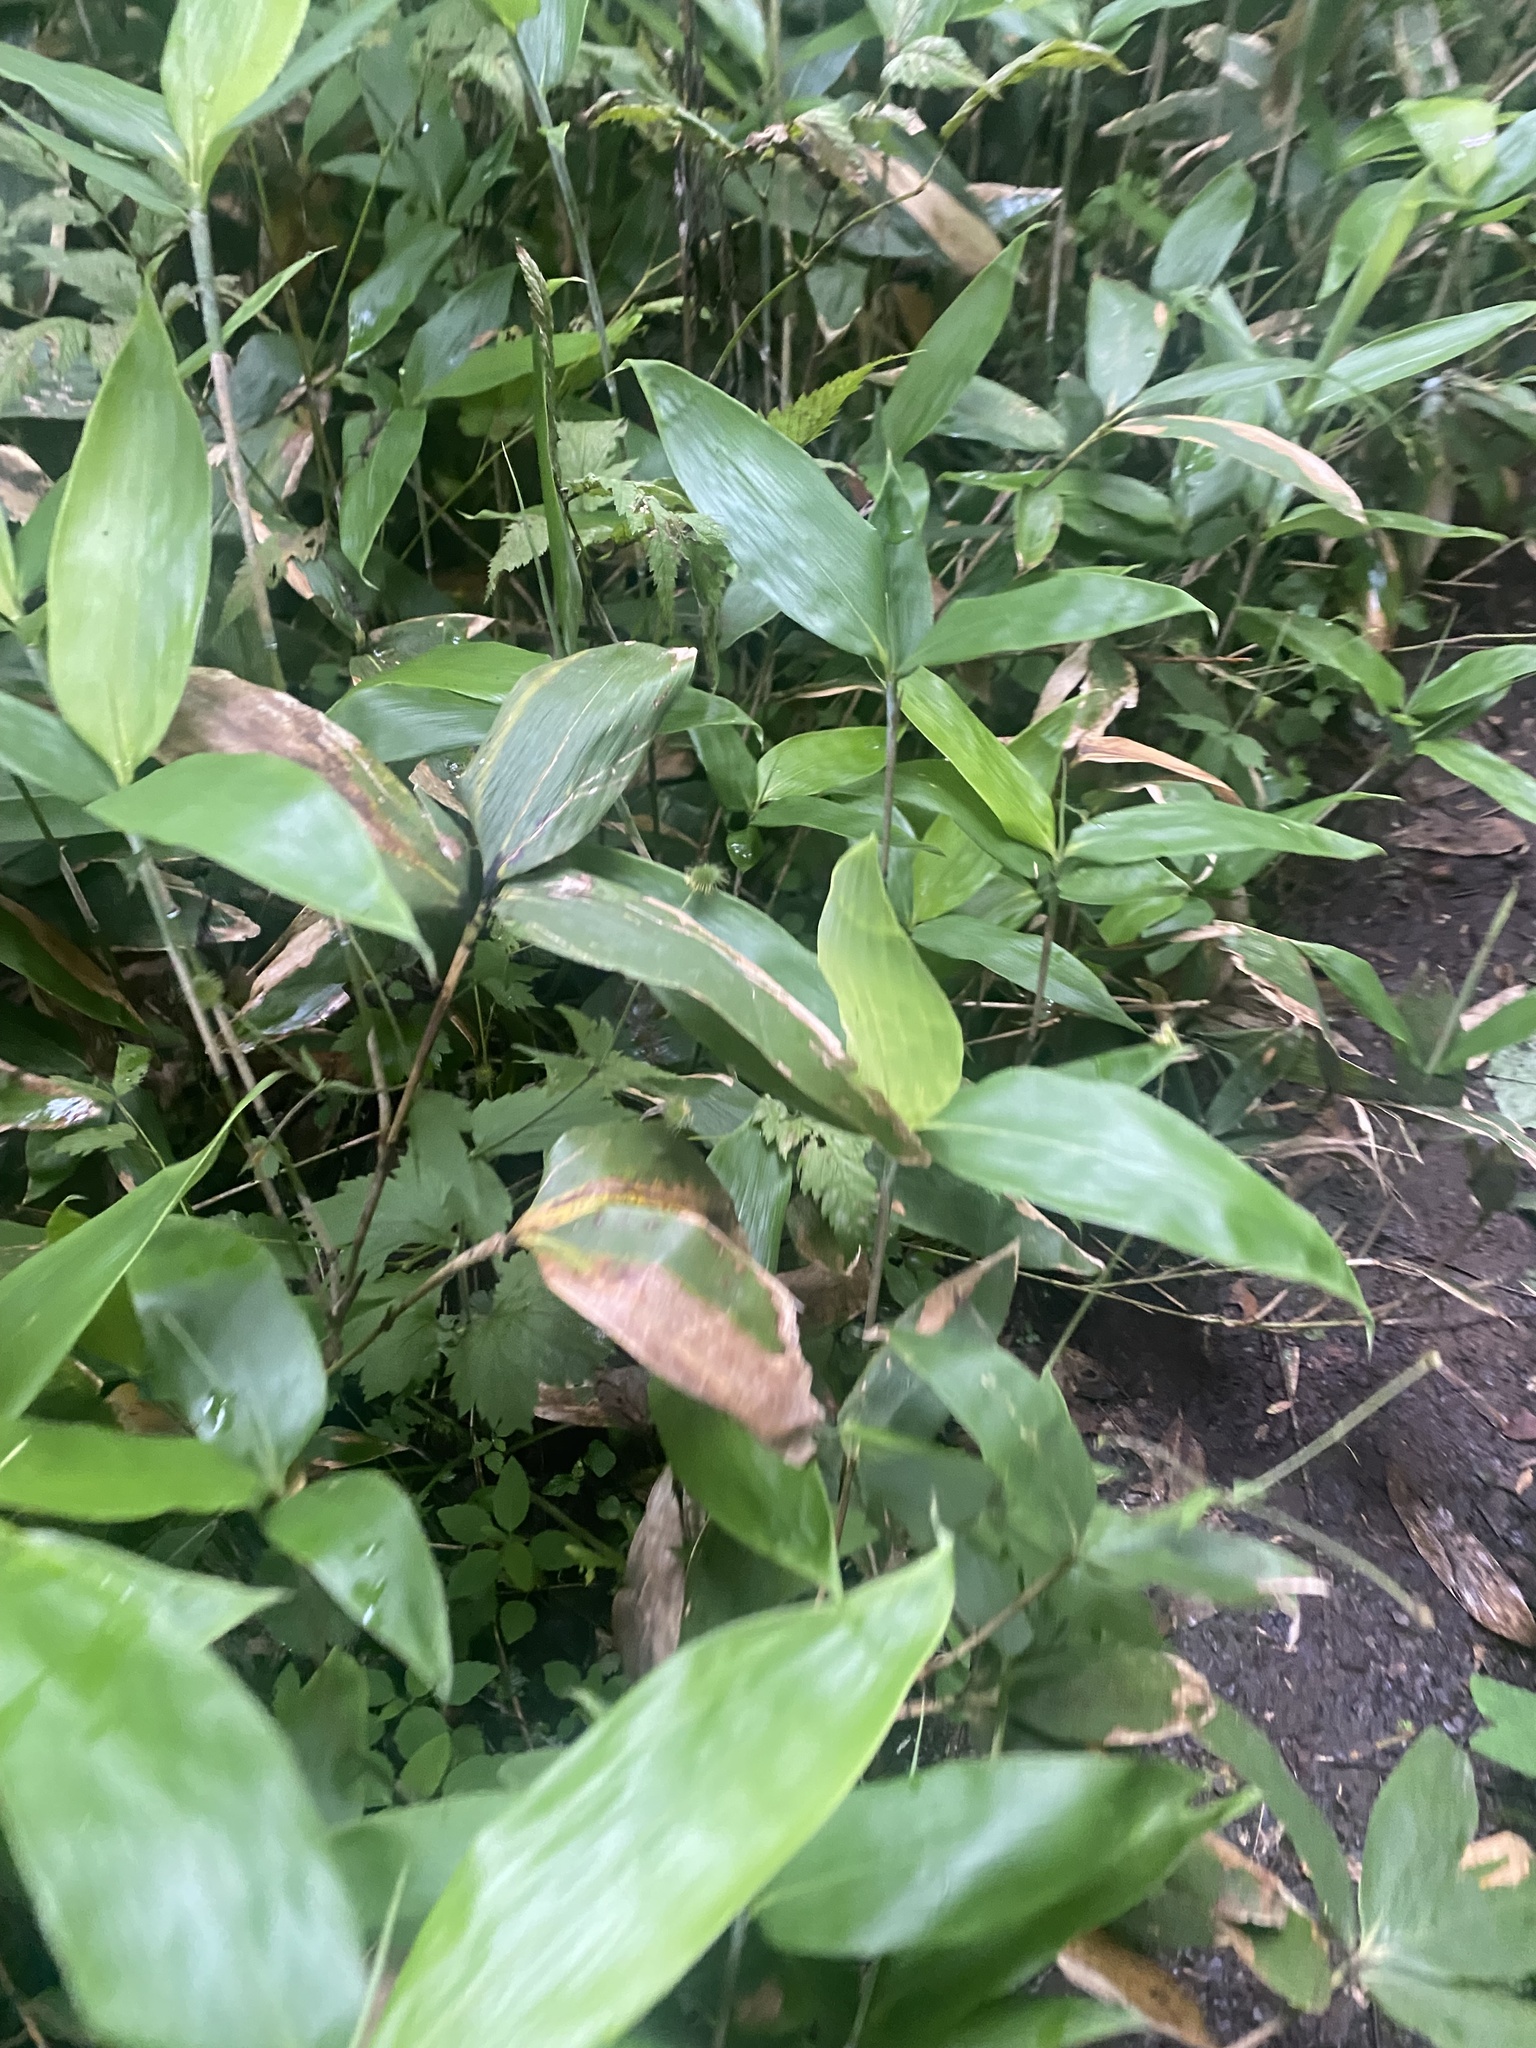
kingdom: Plantae
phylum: Tracheophyta
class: Liliopsida
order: Poales
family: Poaceae
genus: Sasa
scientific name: Sasa kurilensis
